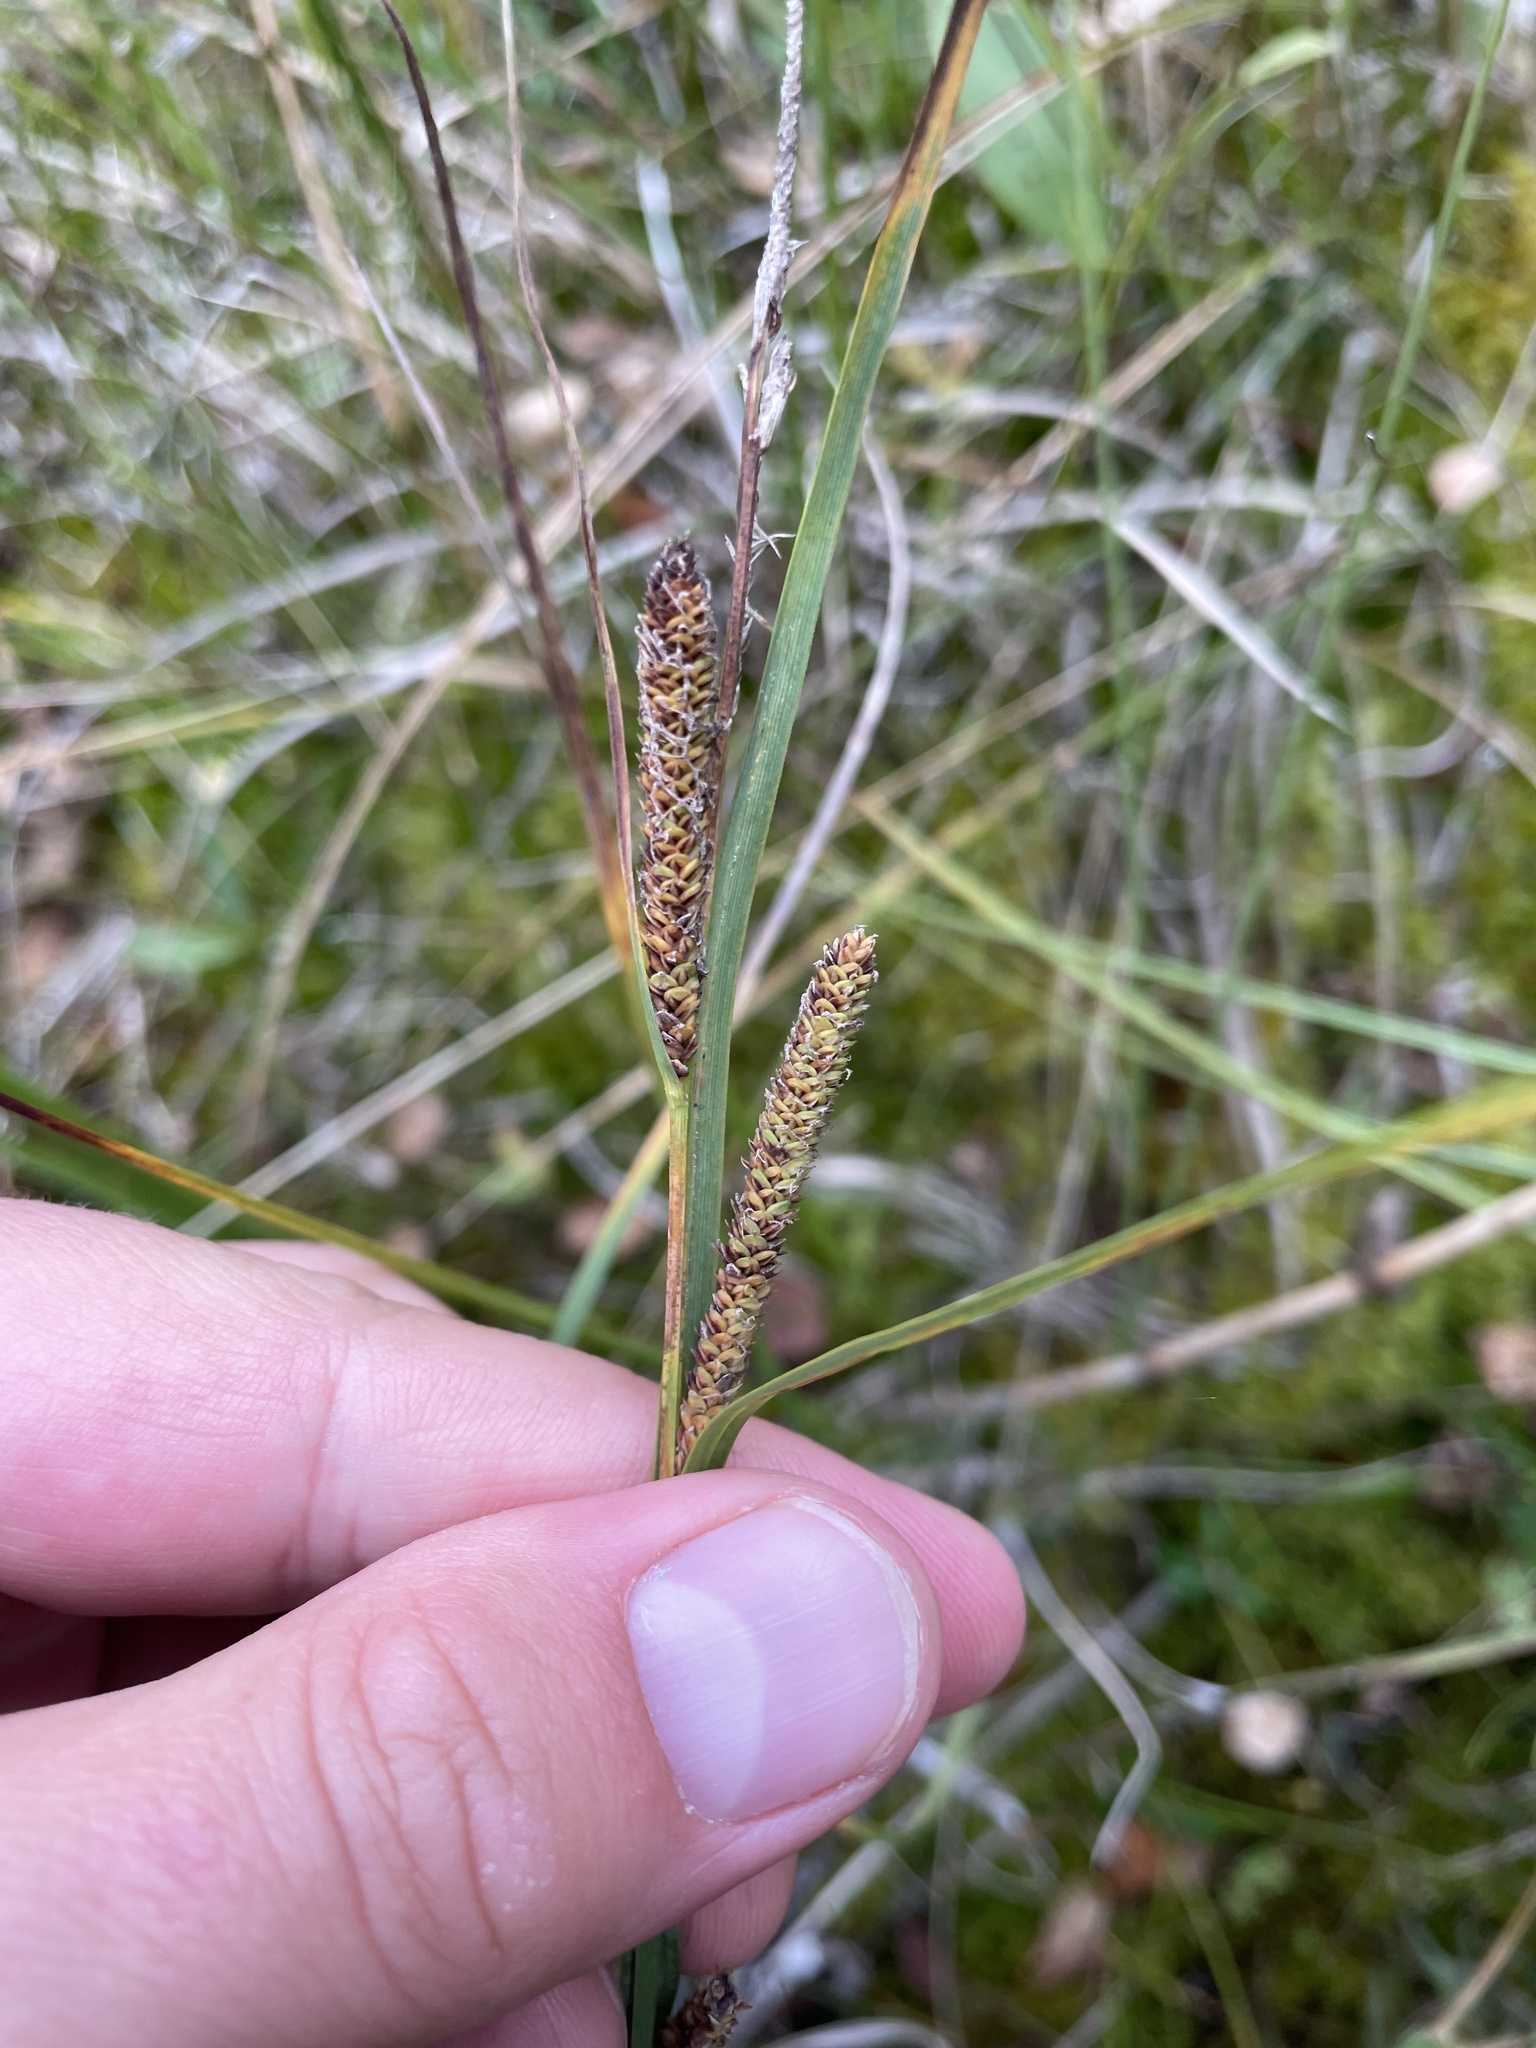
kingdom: Plantae
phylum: Tracheophyta
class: Liliopsida
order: Poales
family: Cyperaceae
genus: Carex
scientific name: Carex aquatilis
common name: Water sedge
